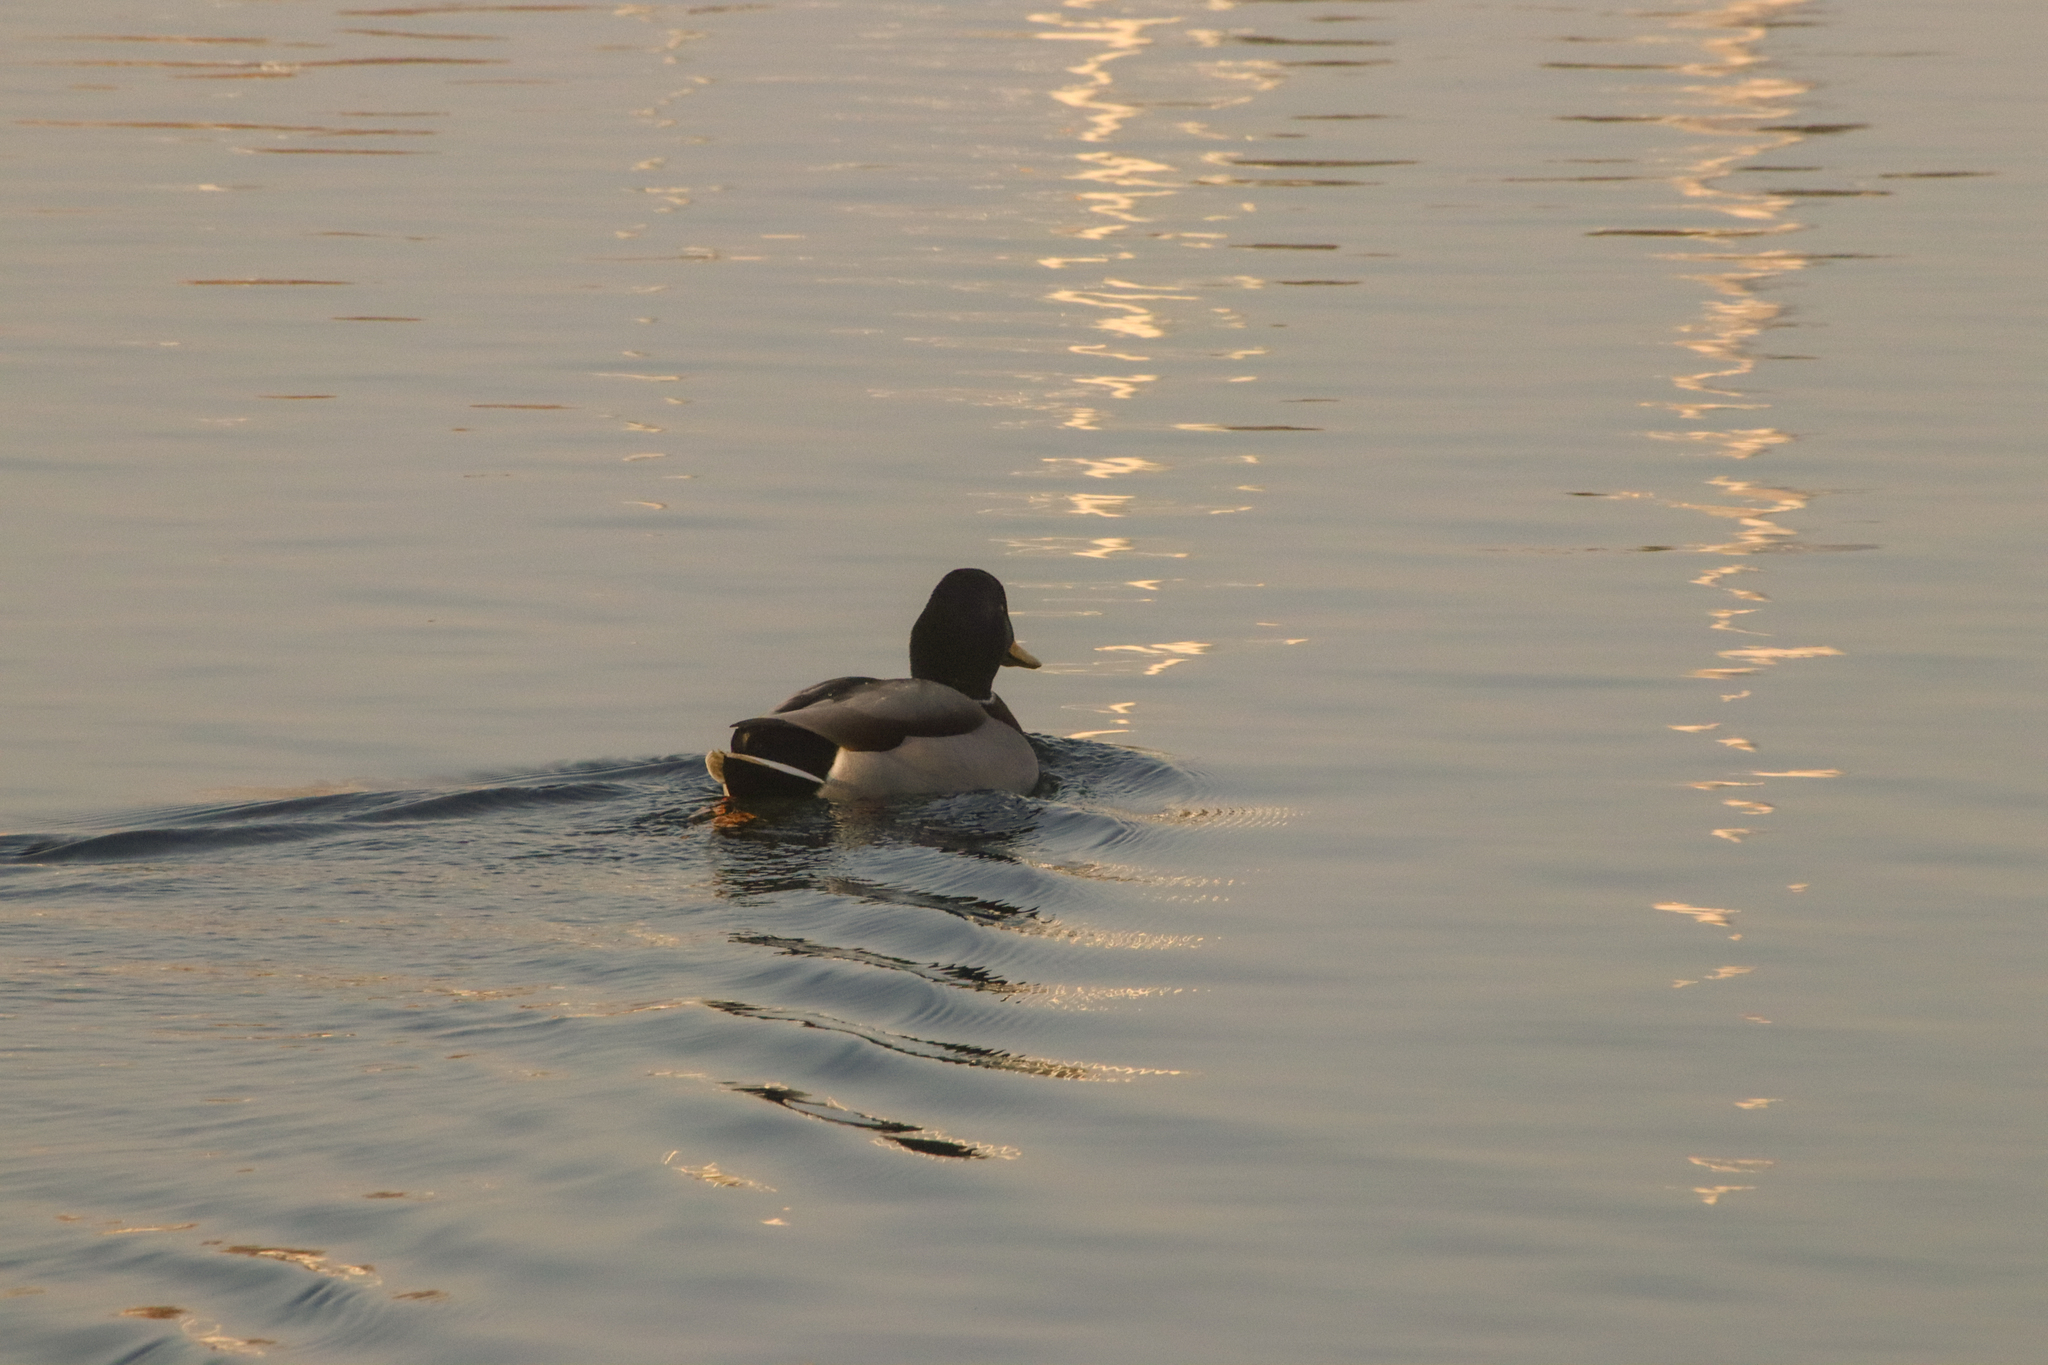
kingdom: Animalia
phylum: Chordata
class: Aves
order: Anseriformes
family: Anatidae
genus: Anas
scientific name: Anas platyrhynchos
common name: Mallard
